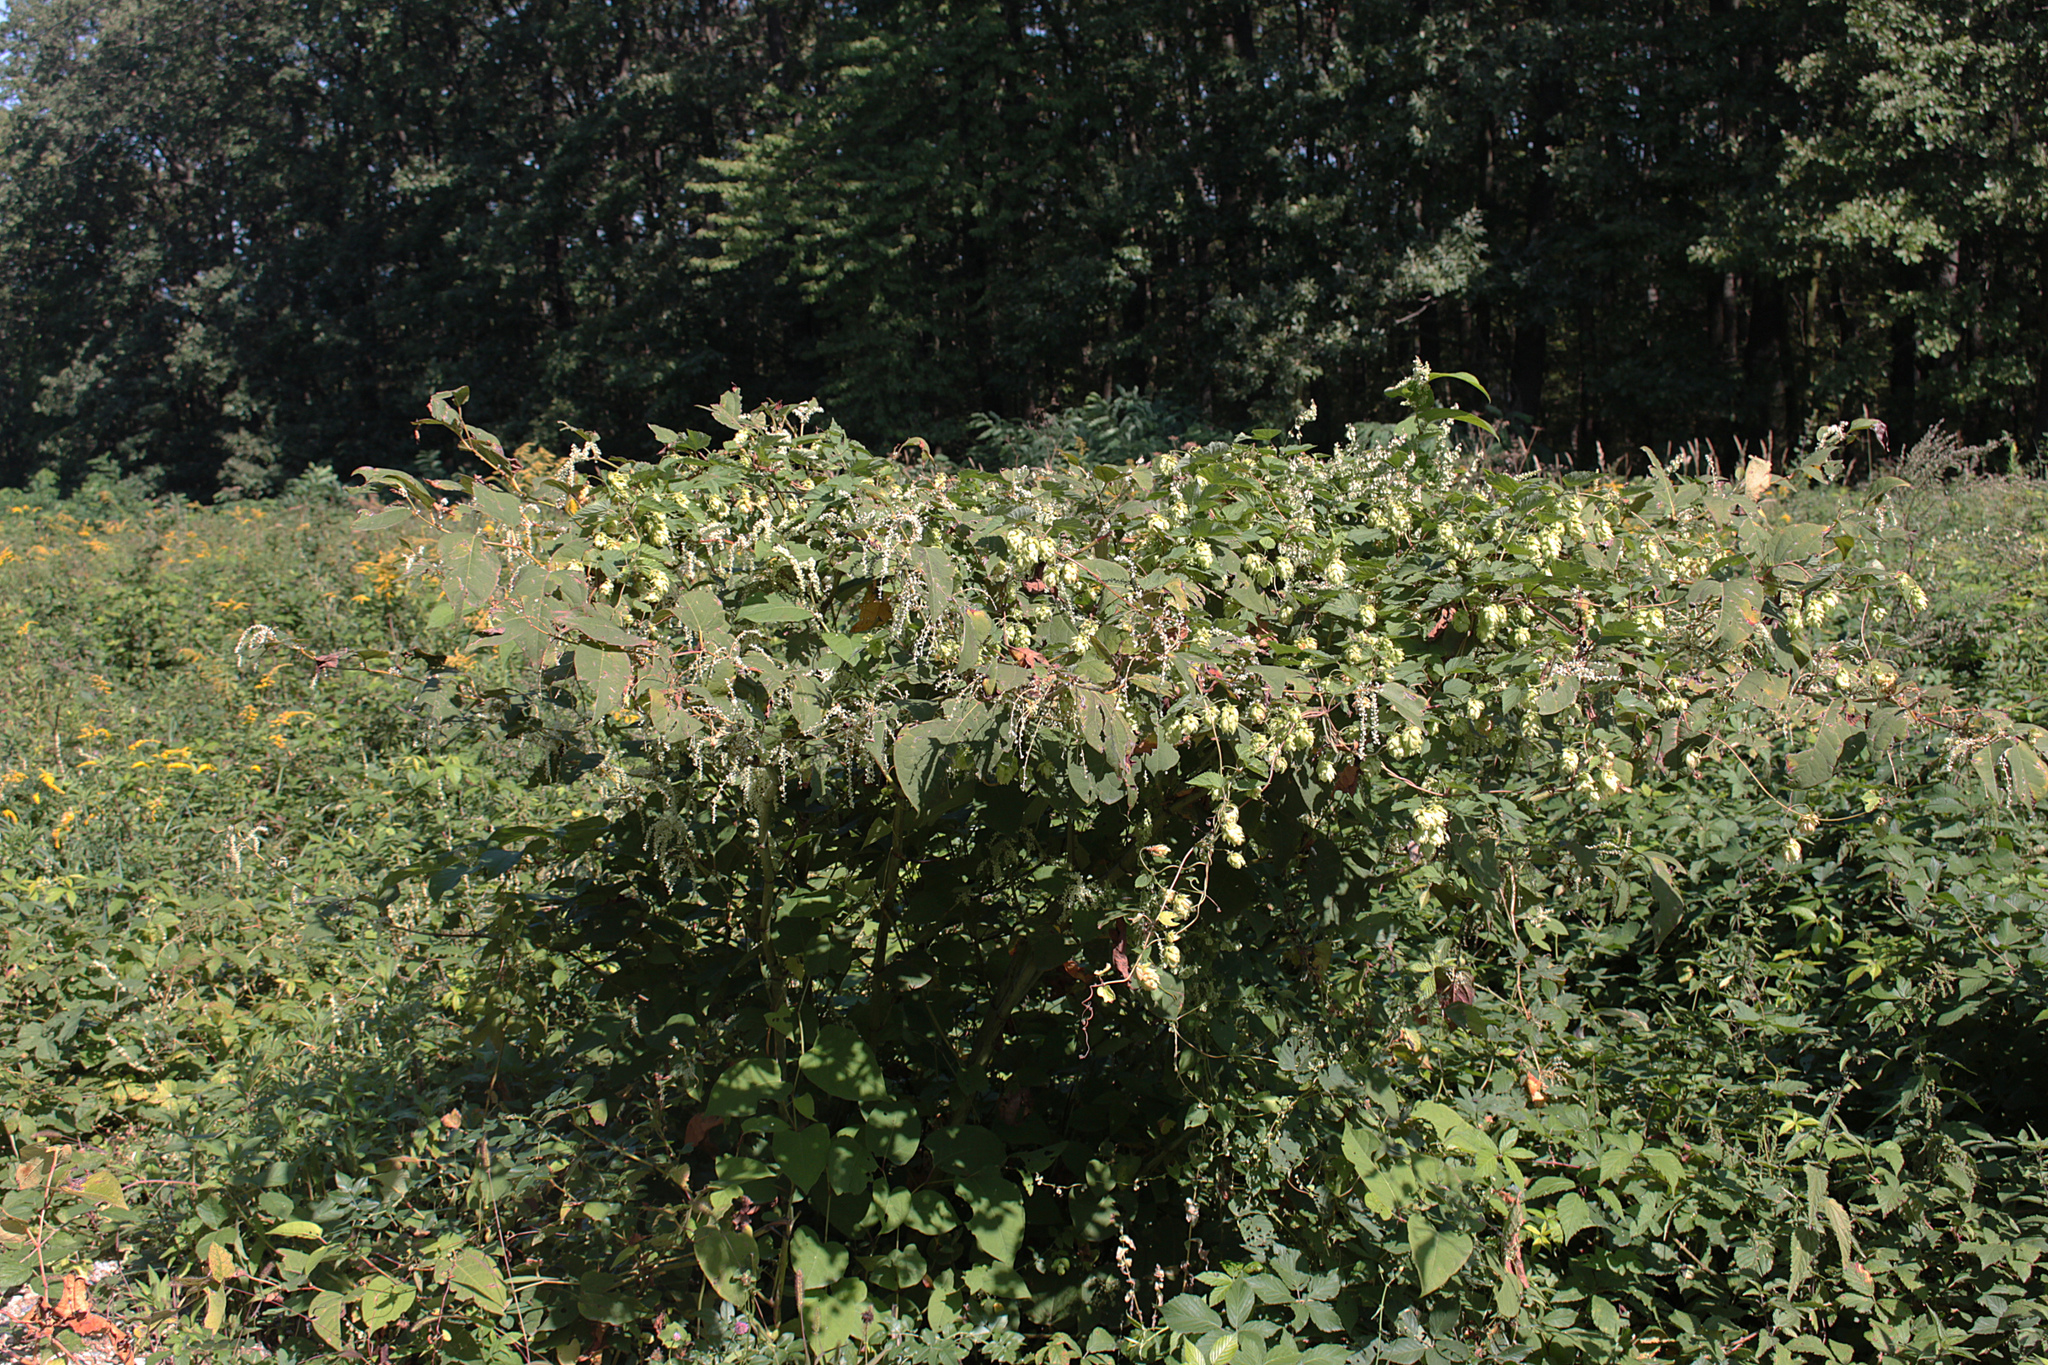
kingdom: Plantae
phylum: Tracheophyta
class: Magnoliopsida
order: Caryophyllales
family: Polygonaceae
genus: Reynoutria
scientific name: Reynoutria bohemica
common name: Bohemian knotweed
